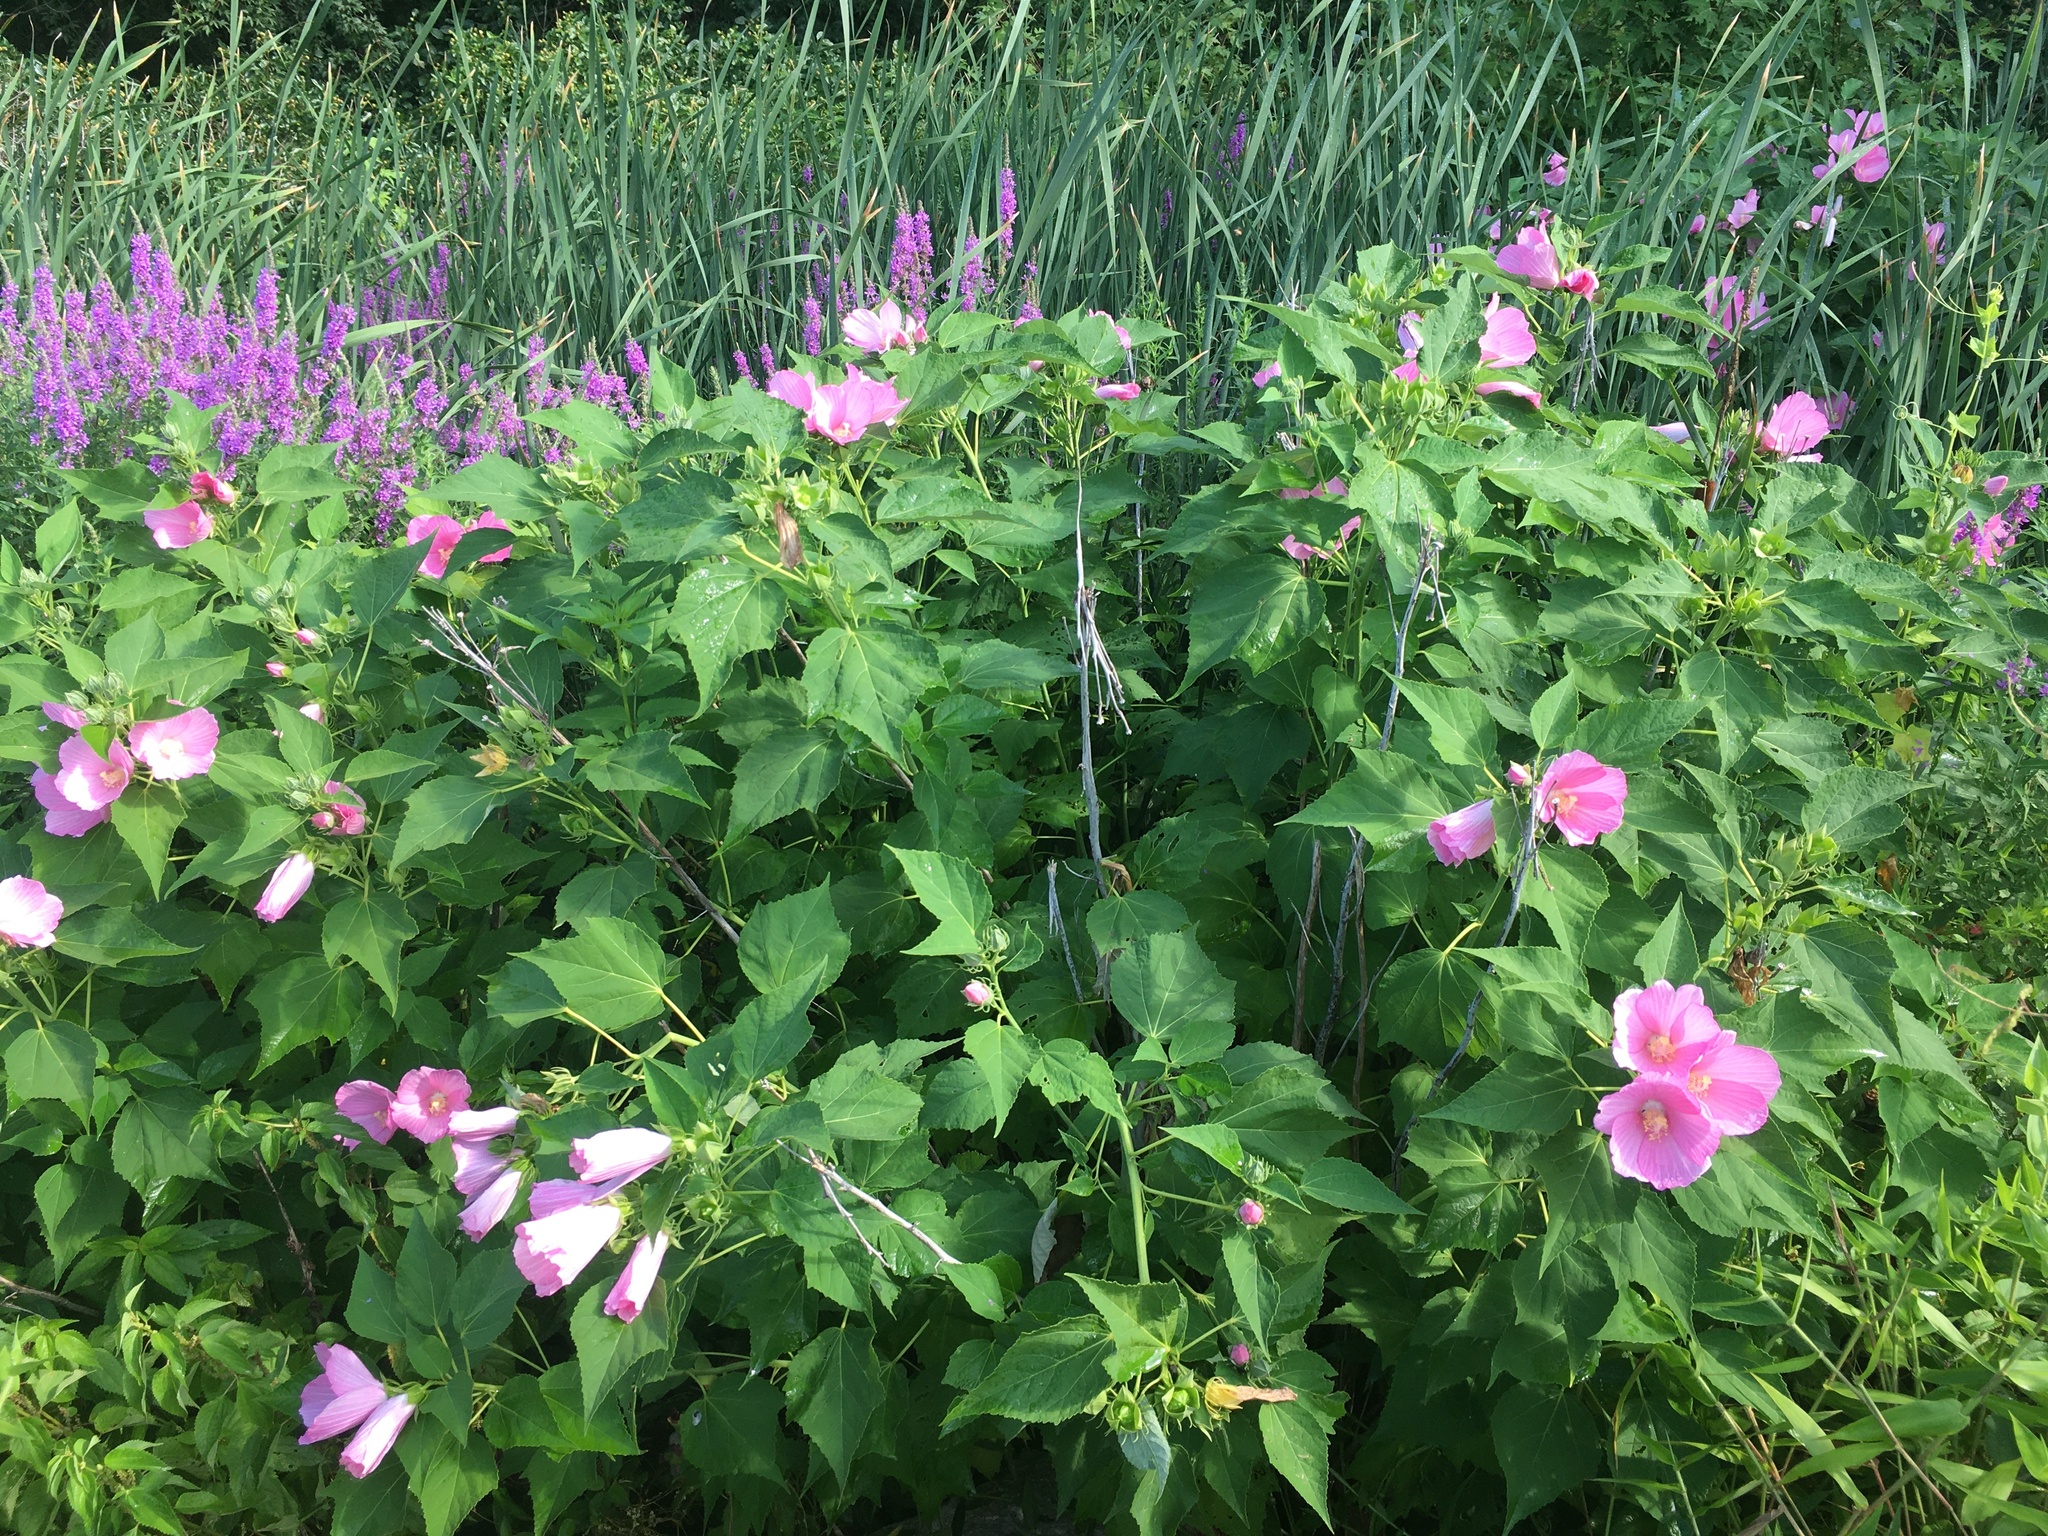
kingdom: Plantae
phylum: Tracheophyta
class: Magnoliopsida
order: Malvales
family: Malvaceae
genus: Hibiscus
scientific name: Hibiscus moscheutos
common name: Common rose-mallow
